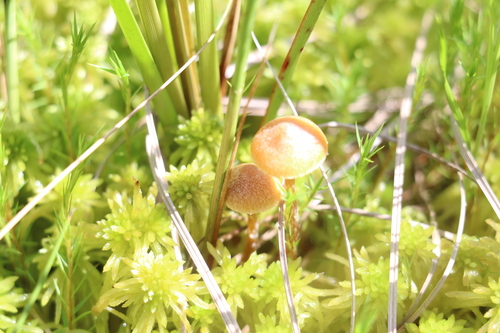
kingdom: Fungi
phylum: Basidiomycota
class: Agaricomycetes
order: Agaricales
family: Hymenogastraceae
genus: Galerina
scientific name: Galerina paludosa
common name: Bog bell
